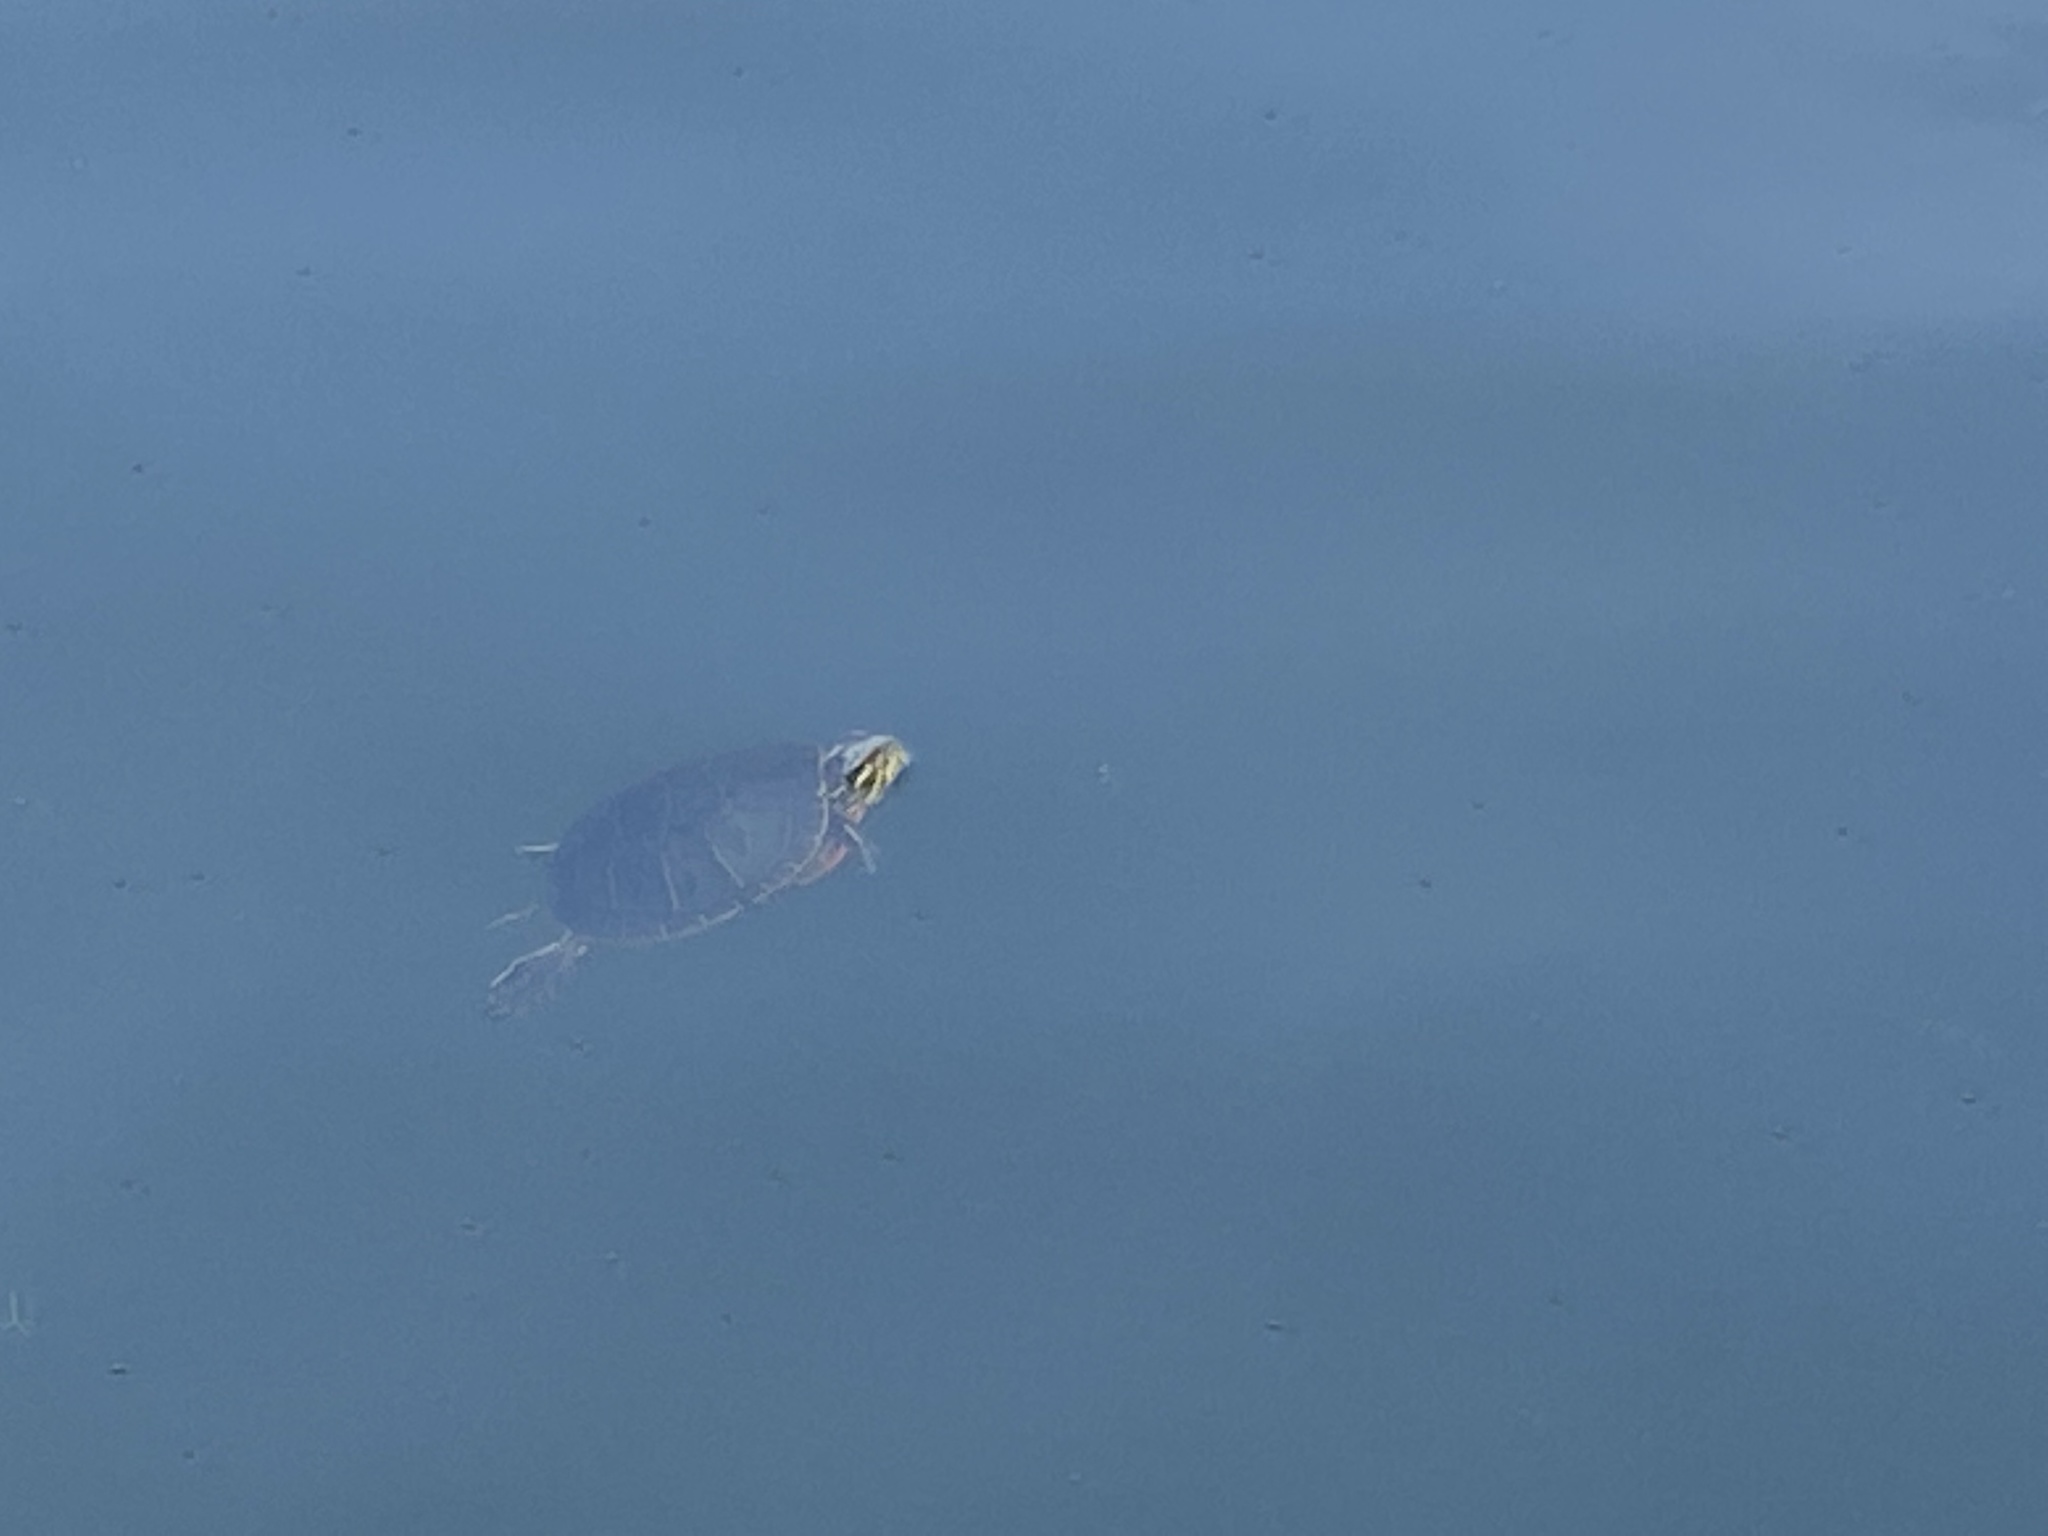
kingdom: Animalia
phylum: Chordata
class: Testudines
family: Emydidae
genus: Chrysemys
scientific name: Chrysemys picta
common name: Painted turtle
